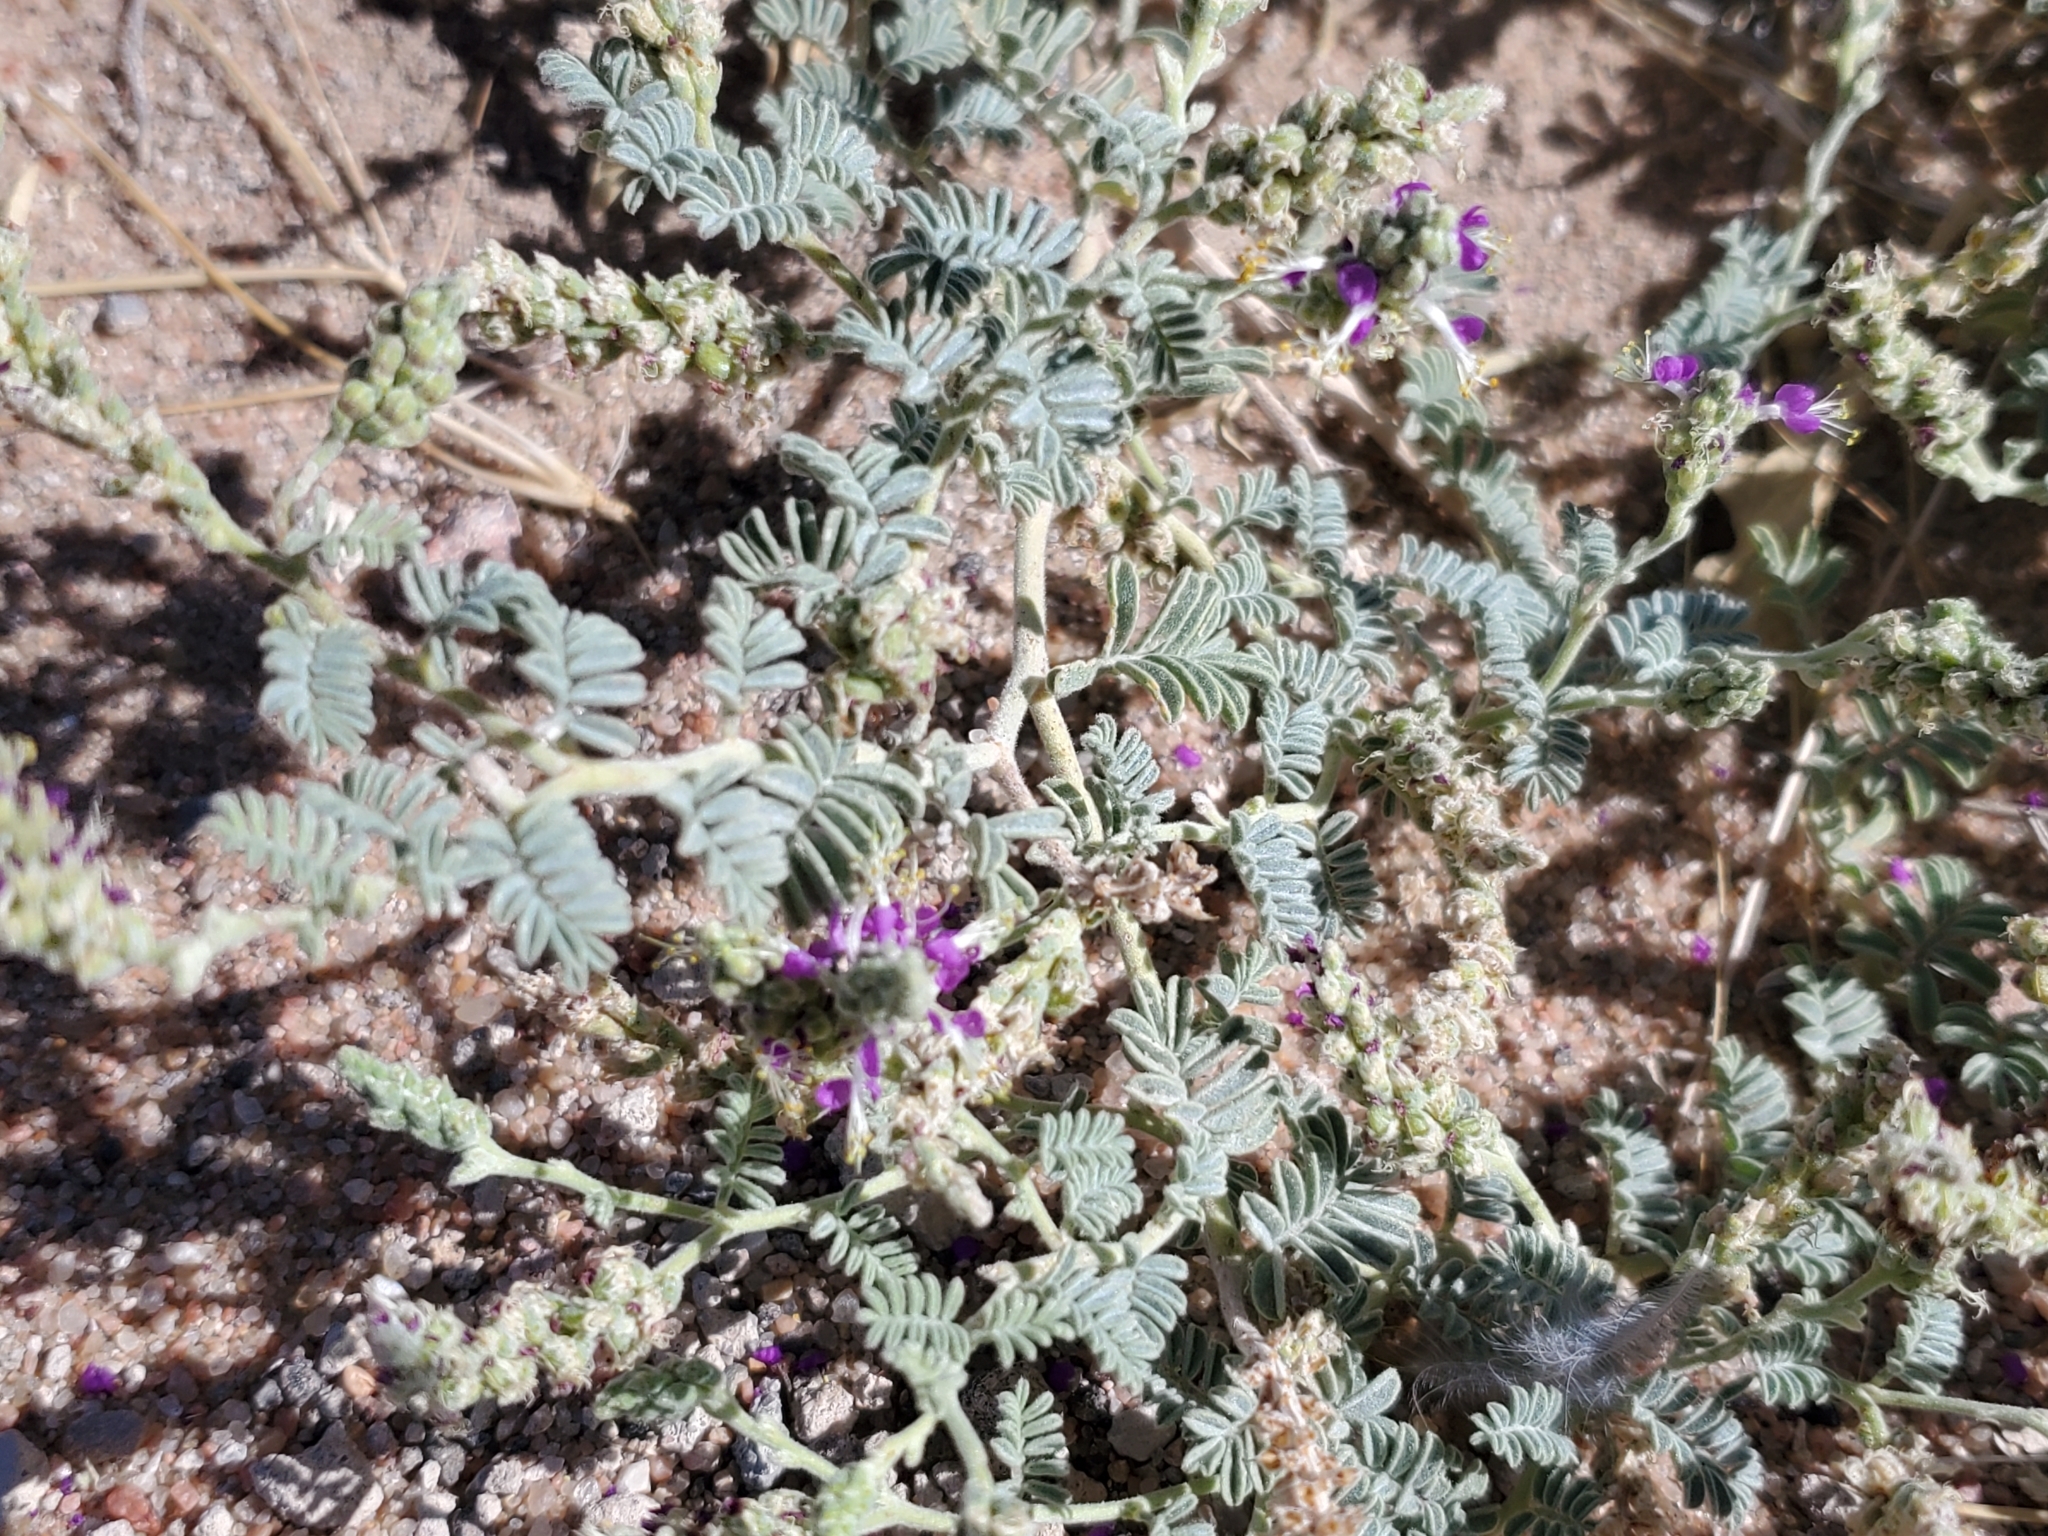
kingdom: Plantae
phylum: Tracheophyta
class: Magnoliopsida
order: Fabales
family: Fabaceae
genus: Dalea
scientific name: Dalea lanata
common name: Woolly dalea
